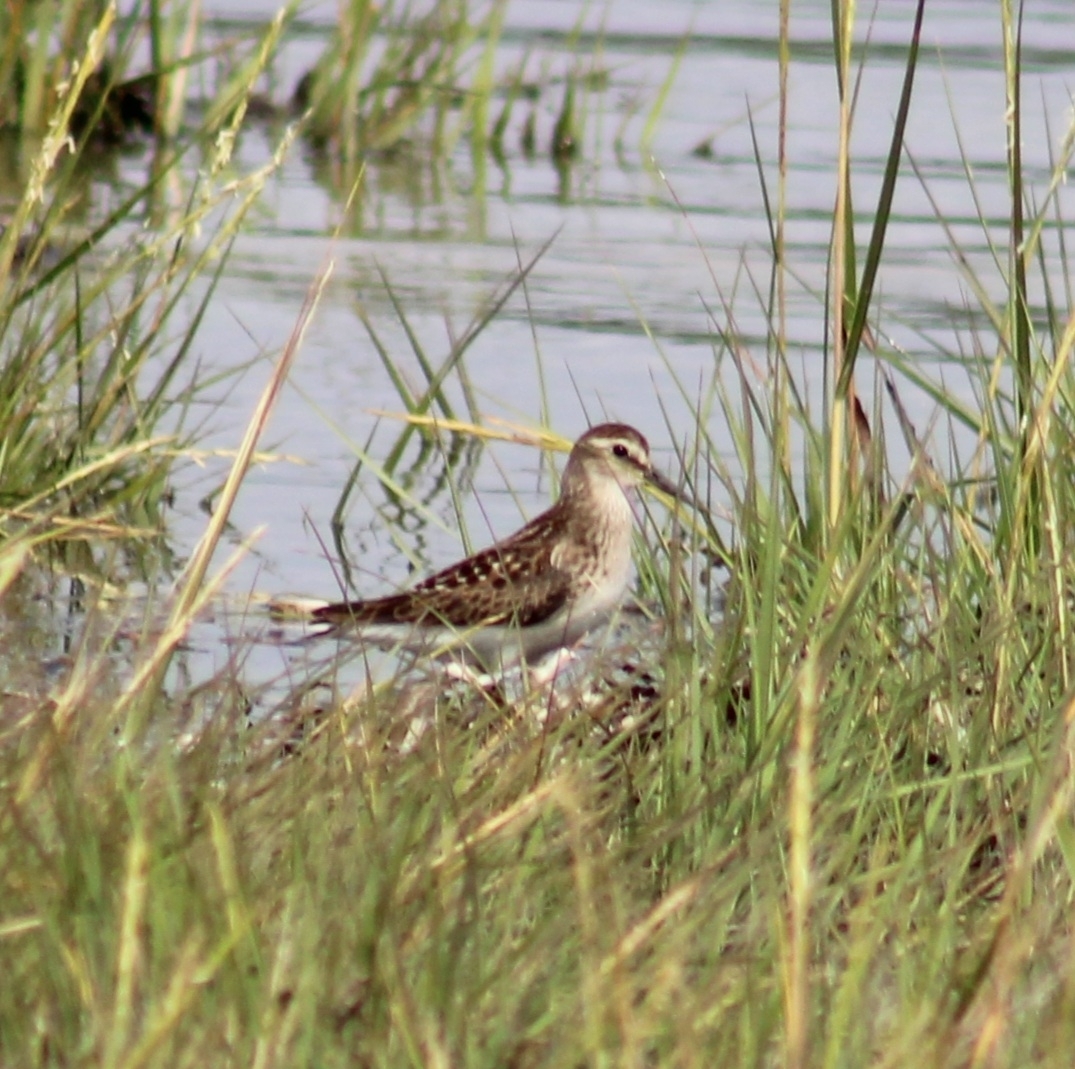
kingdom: Animalia
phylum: Chordata
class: Aves
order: Charadriiformes
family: Scolopacidae
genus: Calidris
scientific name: Calidris minutilla
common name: Least sandpiper
